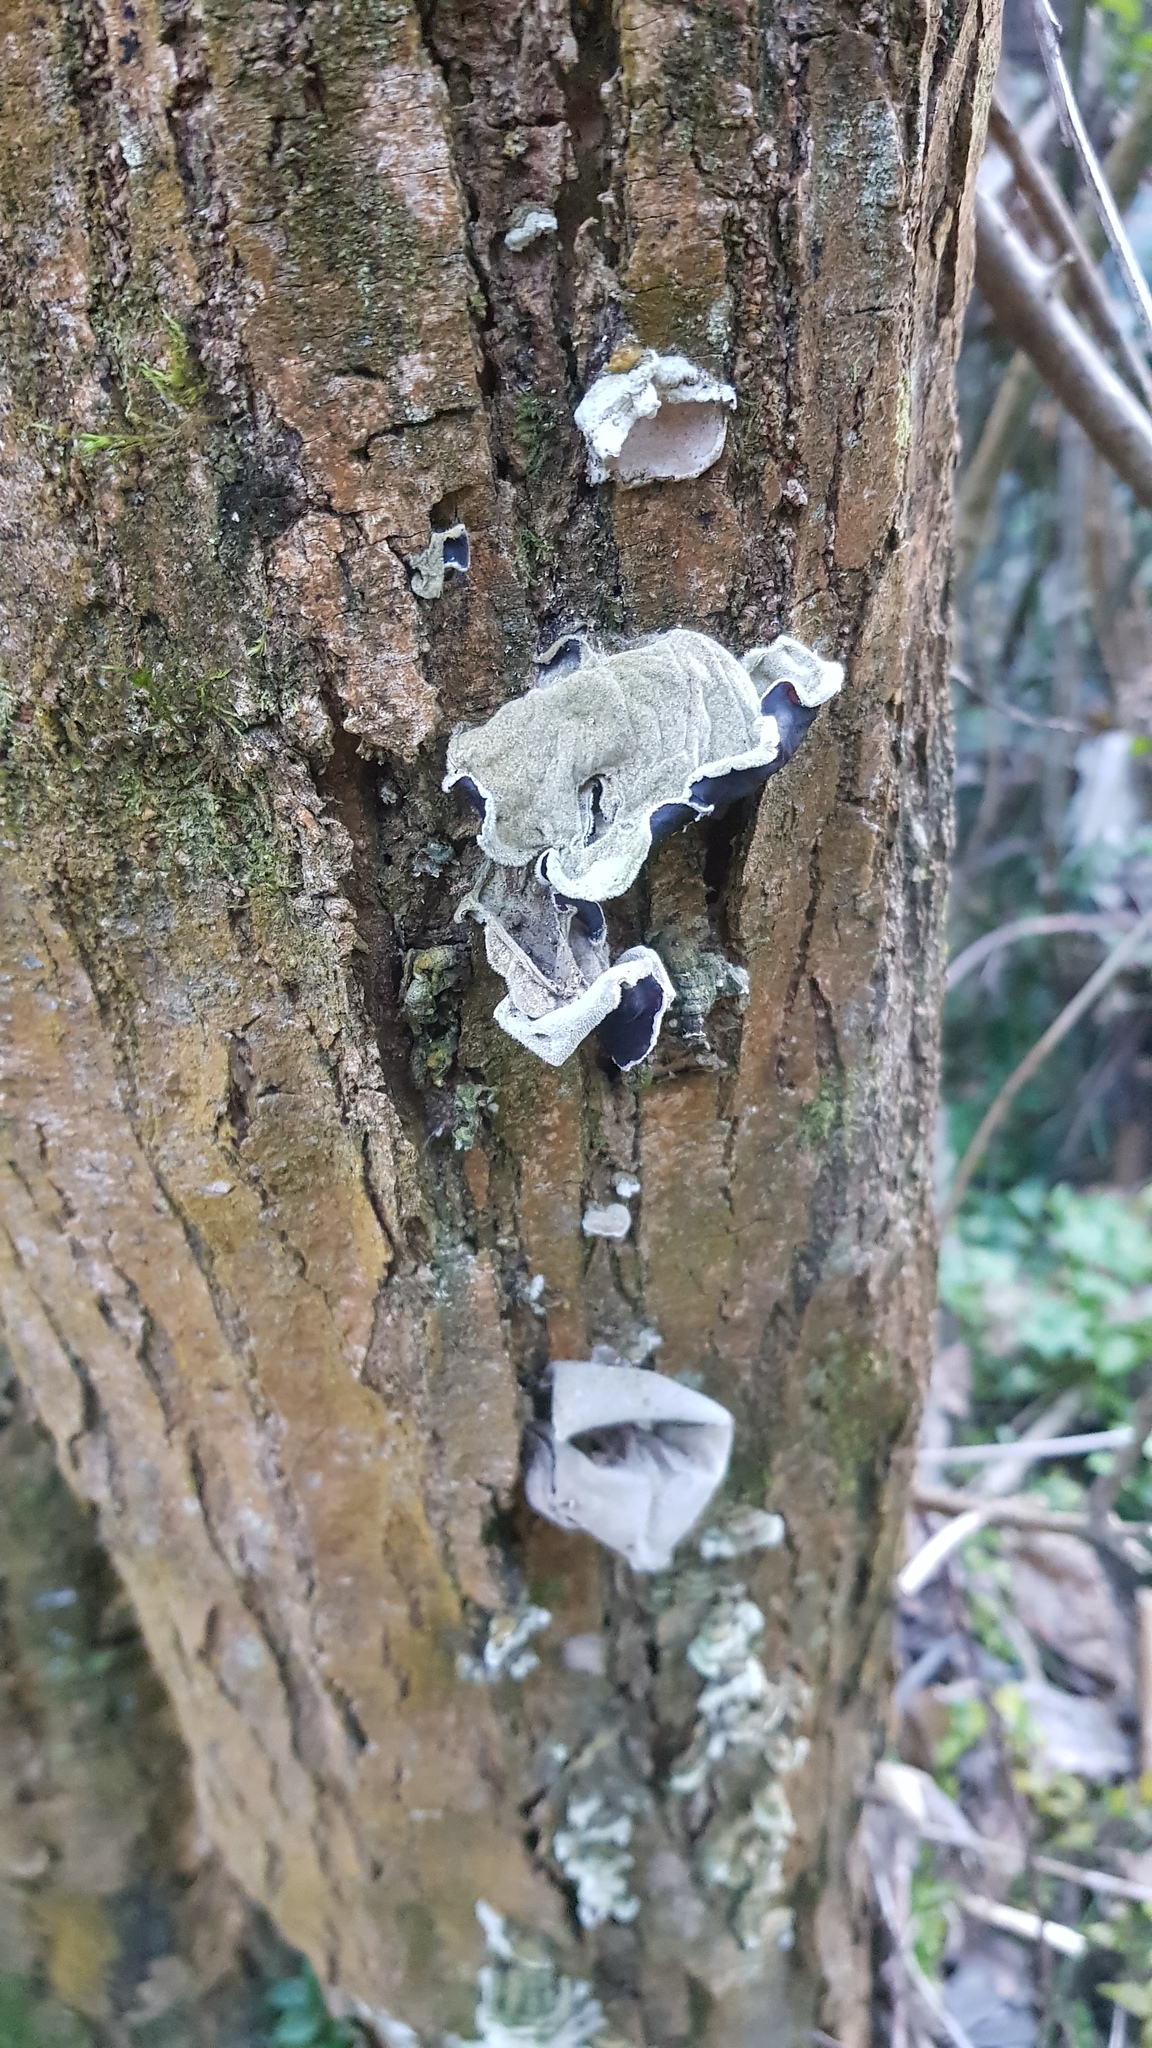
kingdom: Fungi
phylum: Basidiomycota
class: Agaricomycetes
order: Auriculariales
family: Auriculariaceae
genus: Auricularia
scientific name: Auricularia cornea
